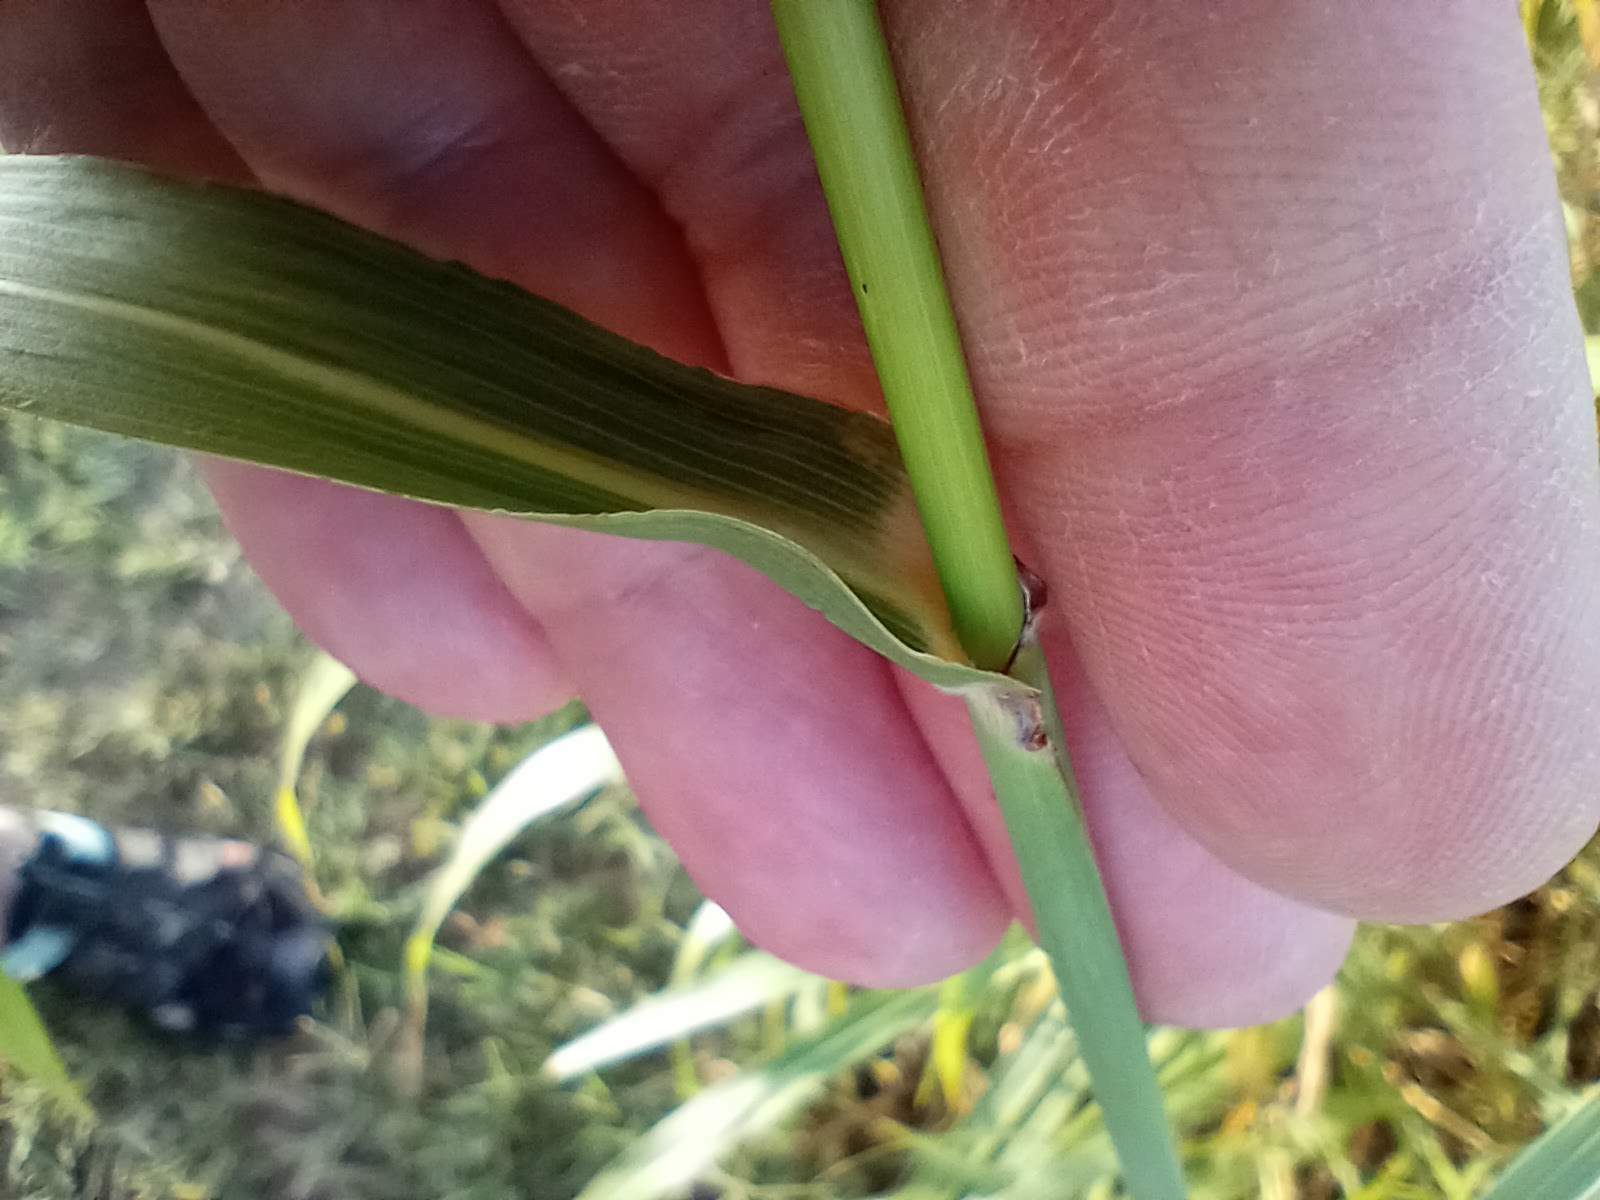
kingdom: Plantae
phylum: Tracheophyta
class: Liliopsida
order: Poales
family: Poaceae
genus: Sorghum
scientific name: Sorghum halepense
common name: Johnson-grass
